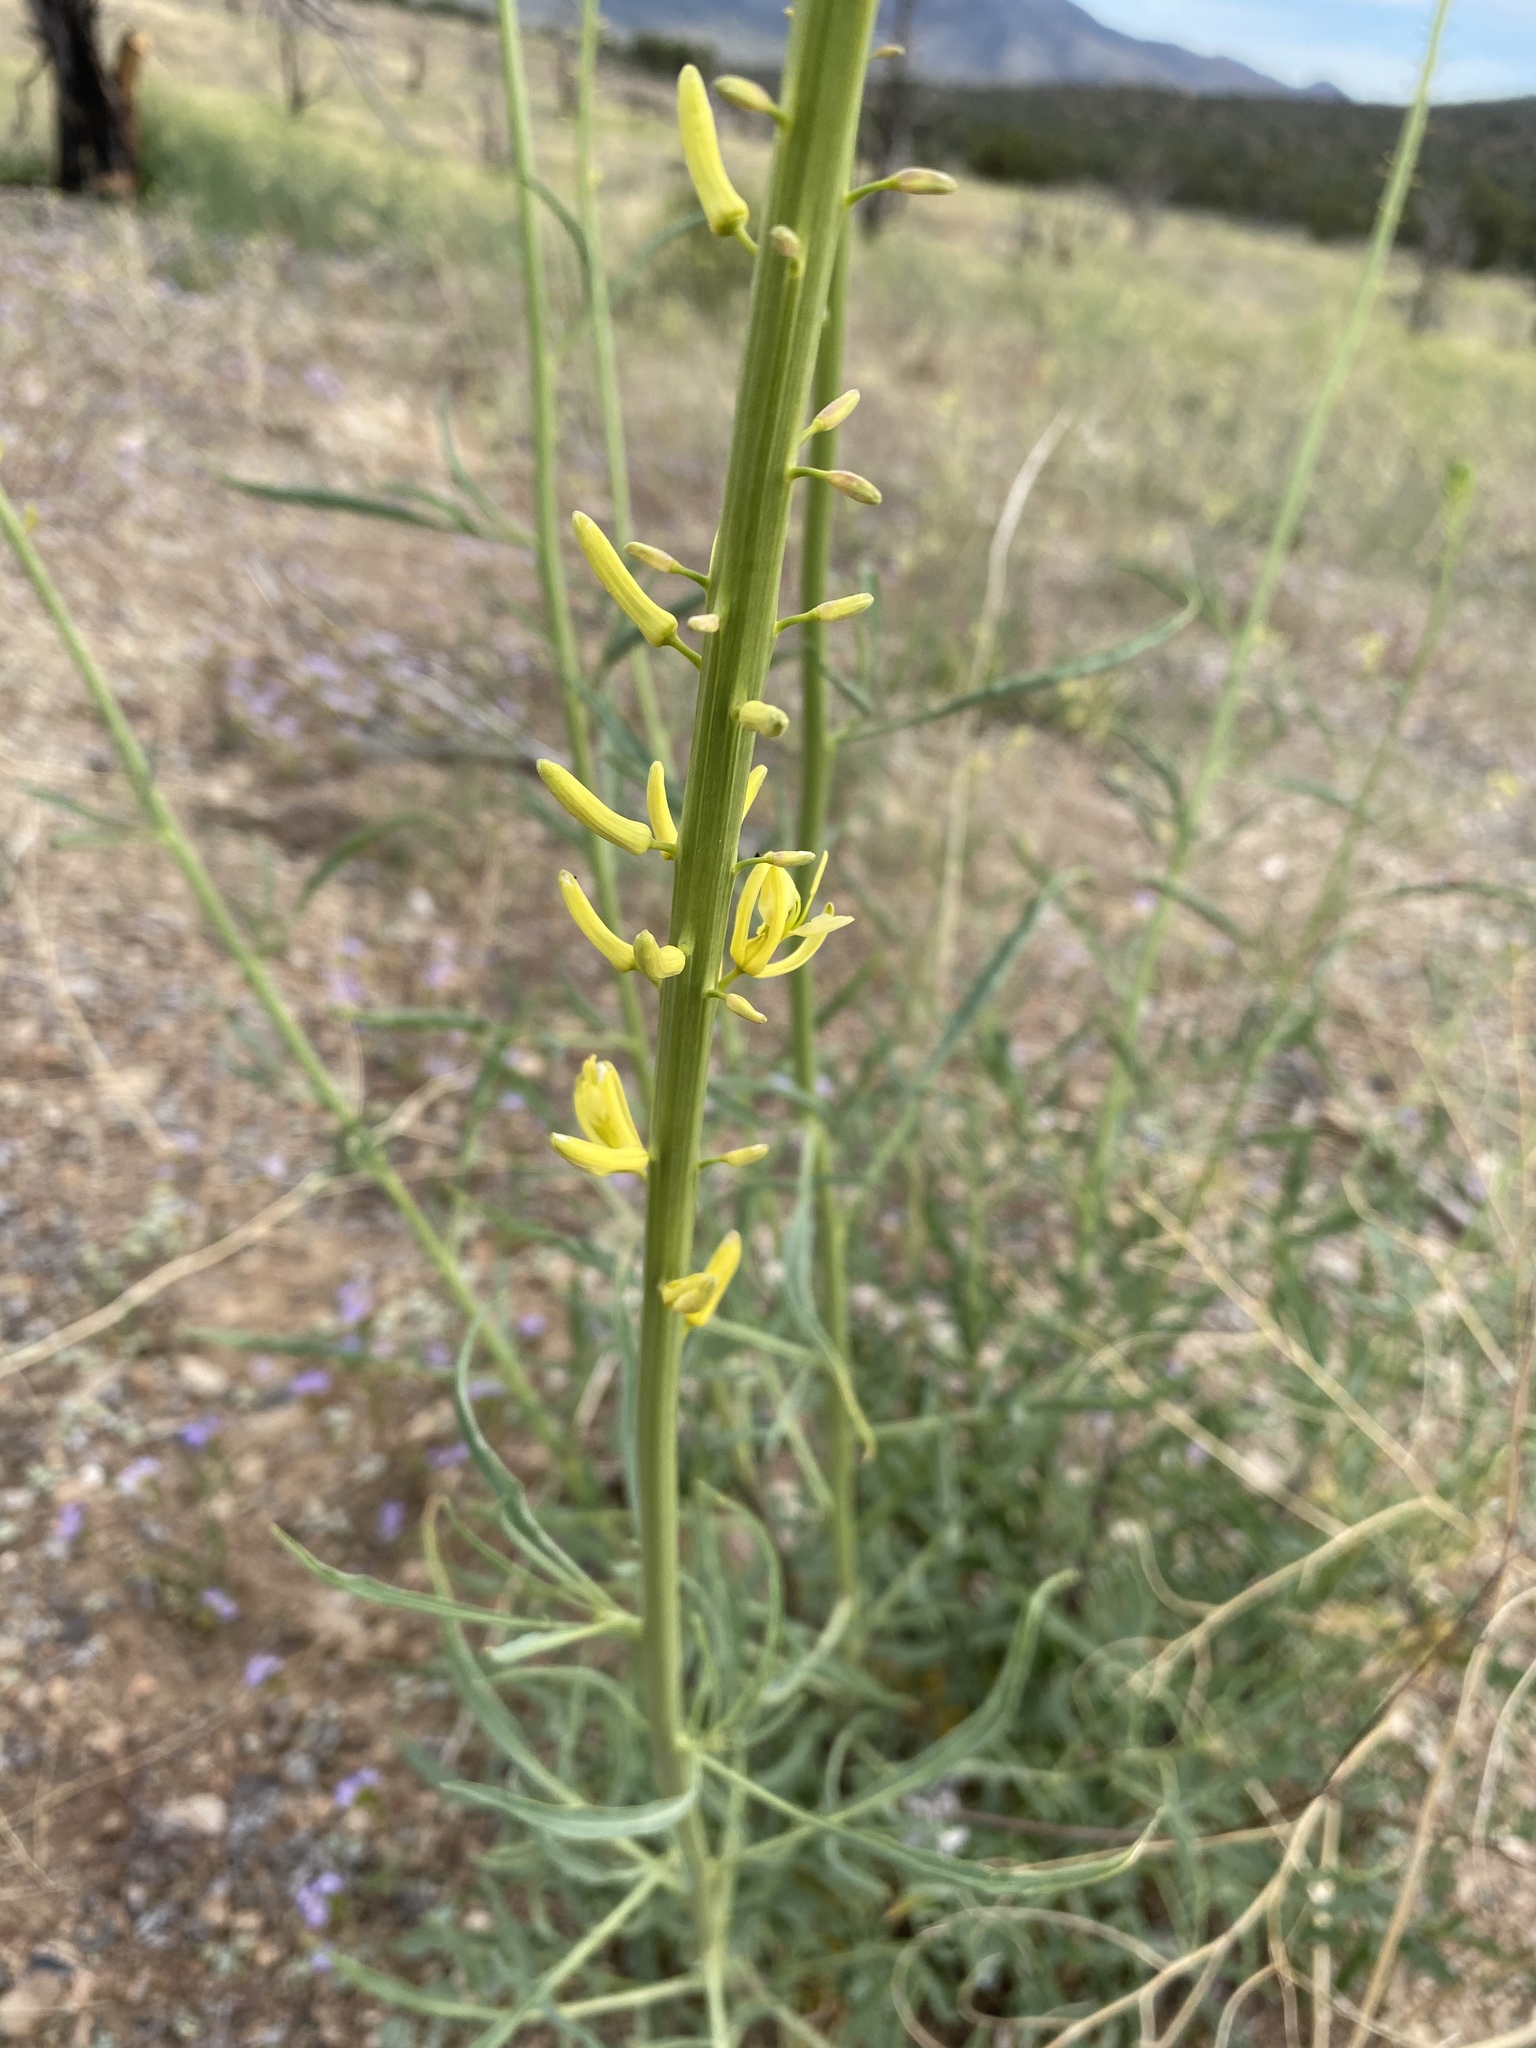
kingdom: Plantae
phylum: Tracheophyta
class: Magnoliopsida
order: Brassicales
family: Brassicaceae
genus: Stanleya
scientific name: Stanleya pinnata
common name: Prince's-plume
